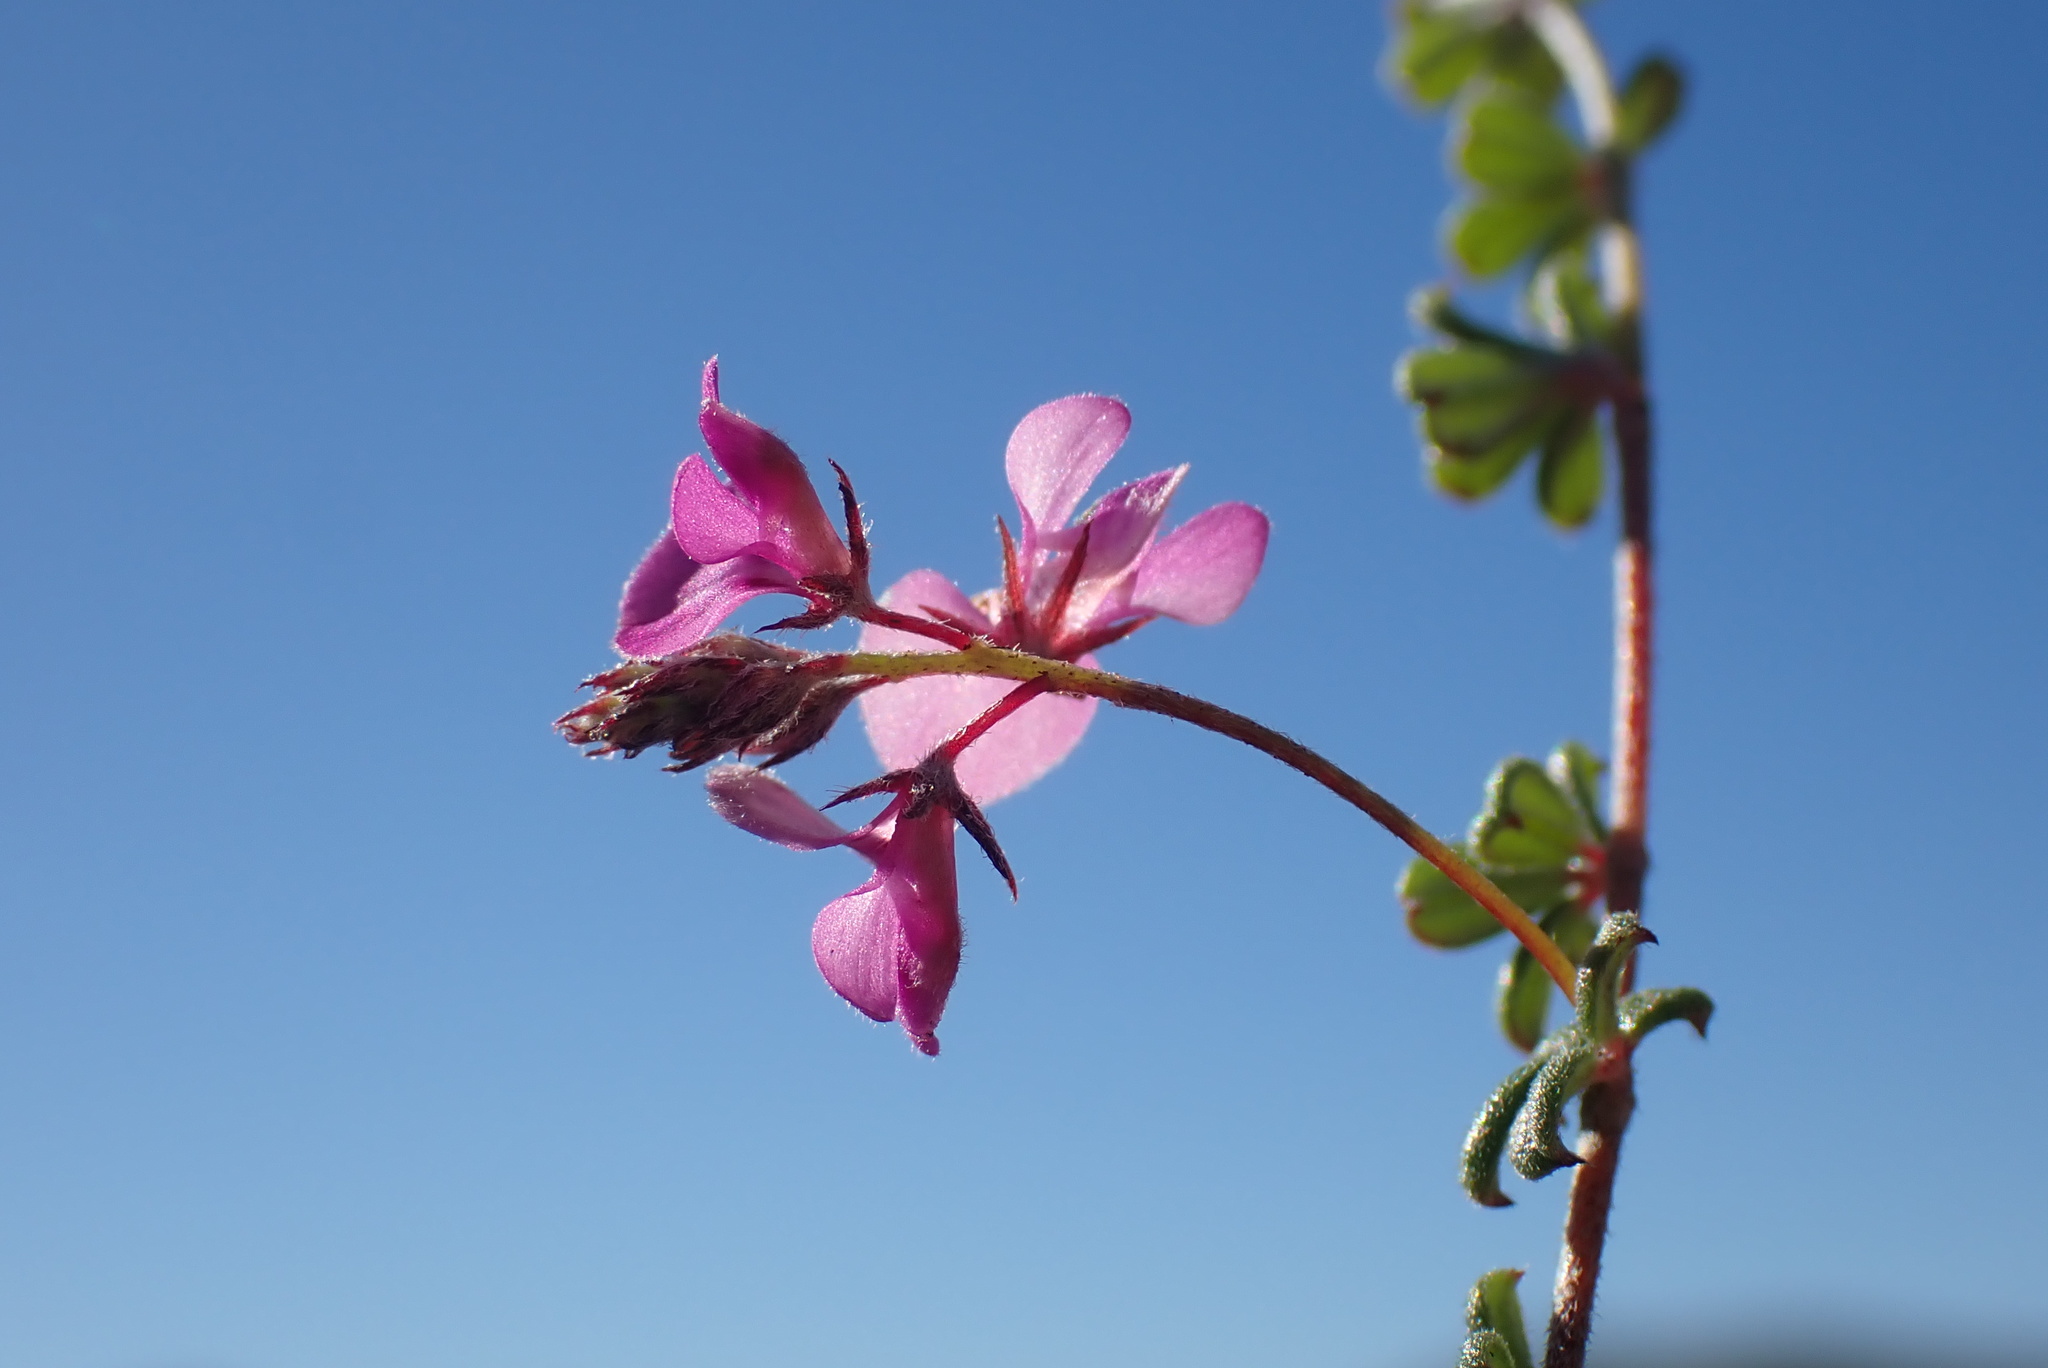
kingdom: Plantae
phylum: Tracheophyta
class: Magnoliopsida
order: Fabales
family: Fabaceae
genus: Indigofera
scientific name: Indigofera
